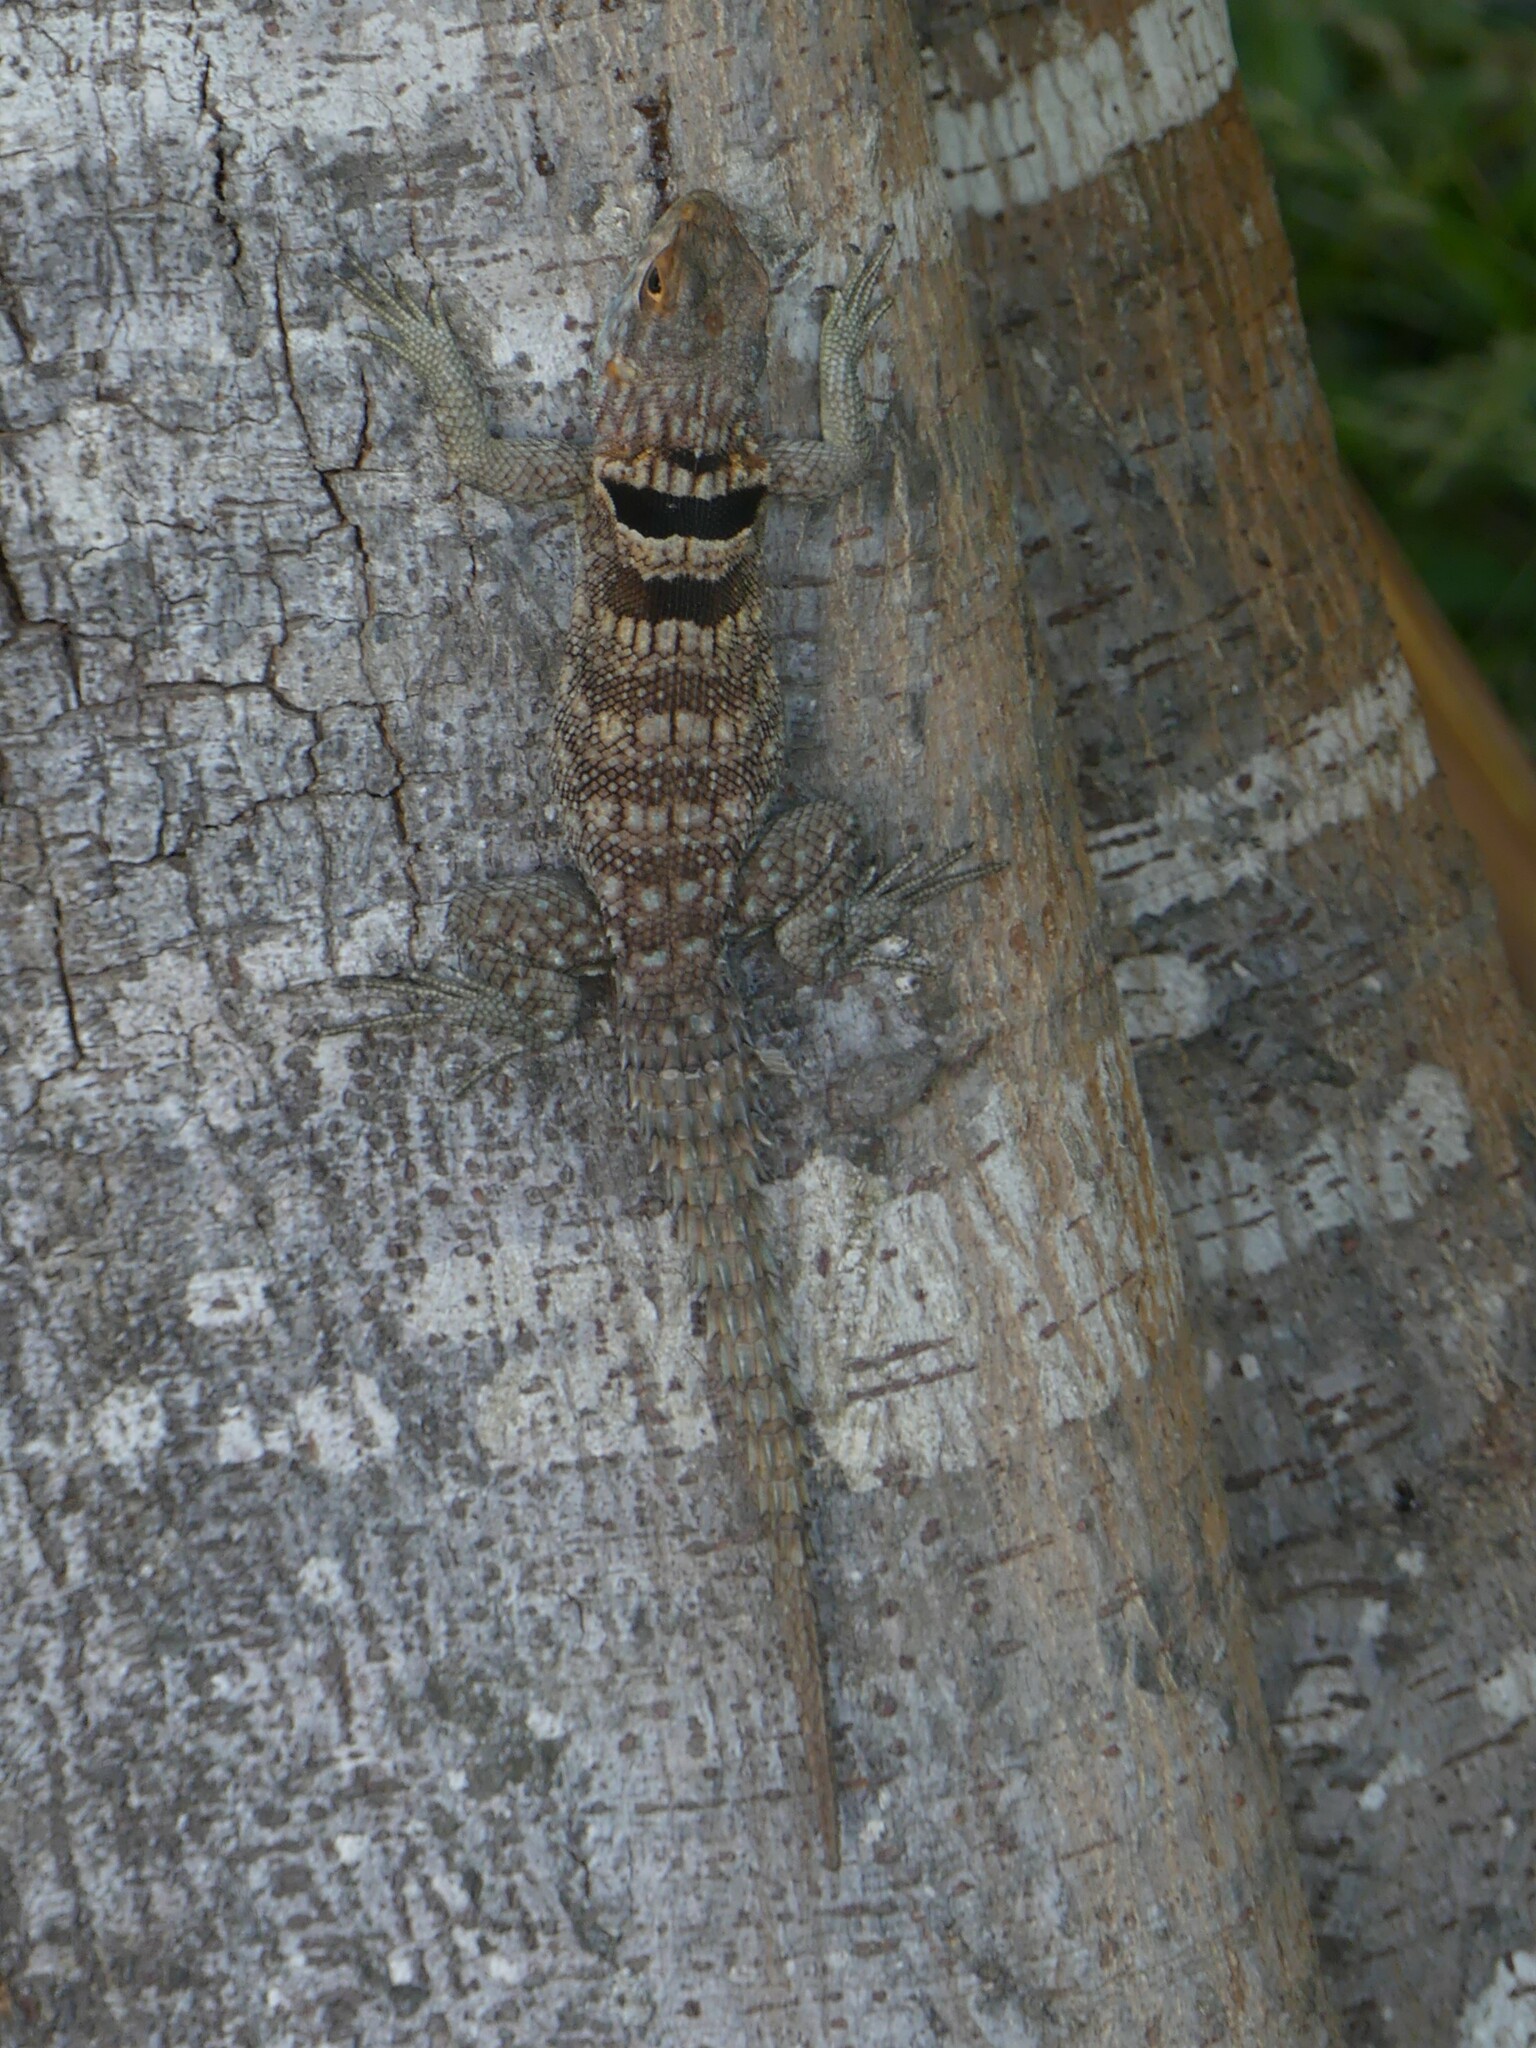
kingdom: Animalia
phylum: Chordata
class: Squamata
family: Opluridae
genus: Oplurus
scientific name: Oplurus cuvieri
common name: Cuvier's madagascar swift
